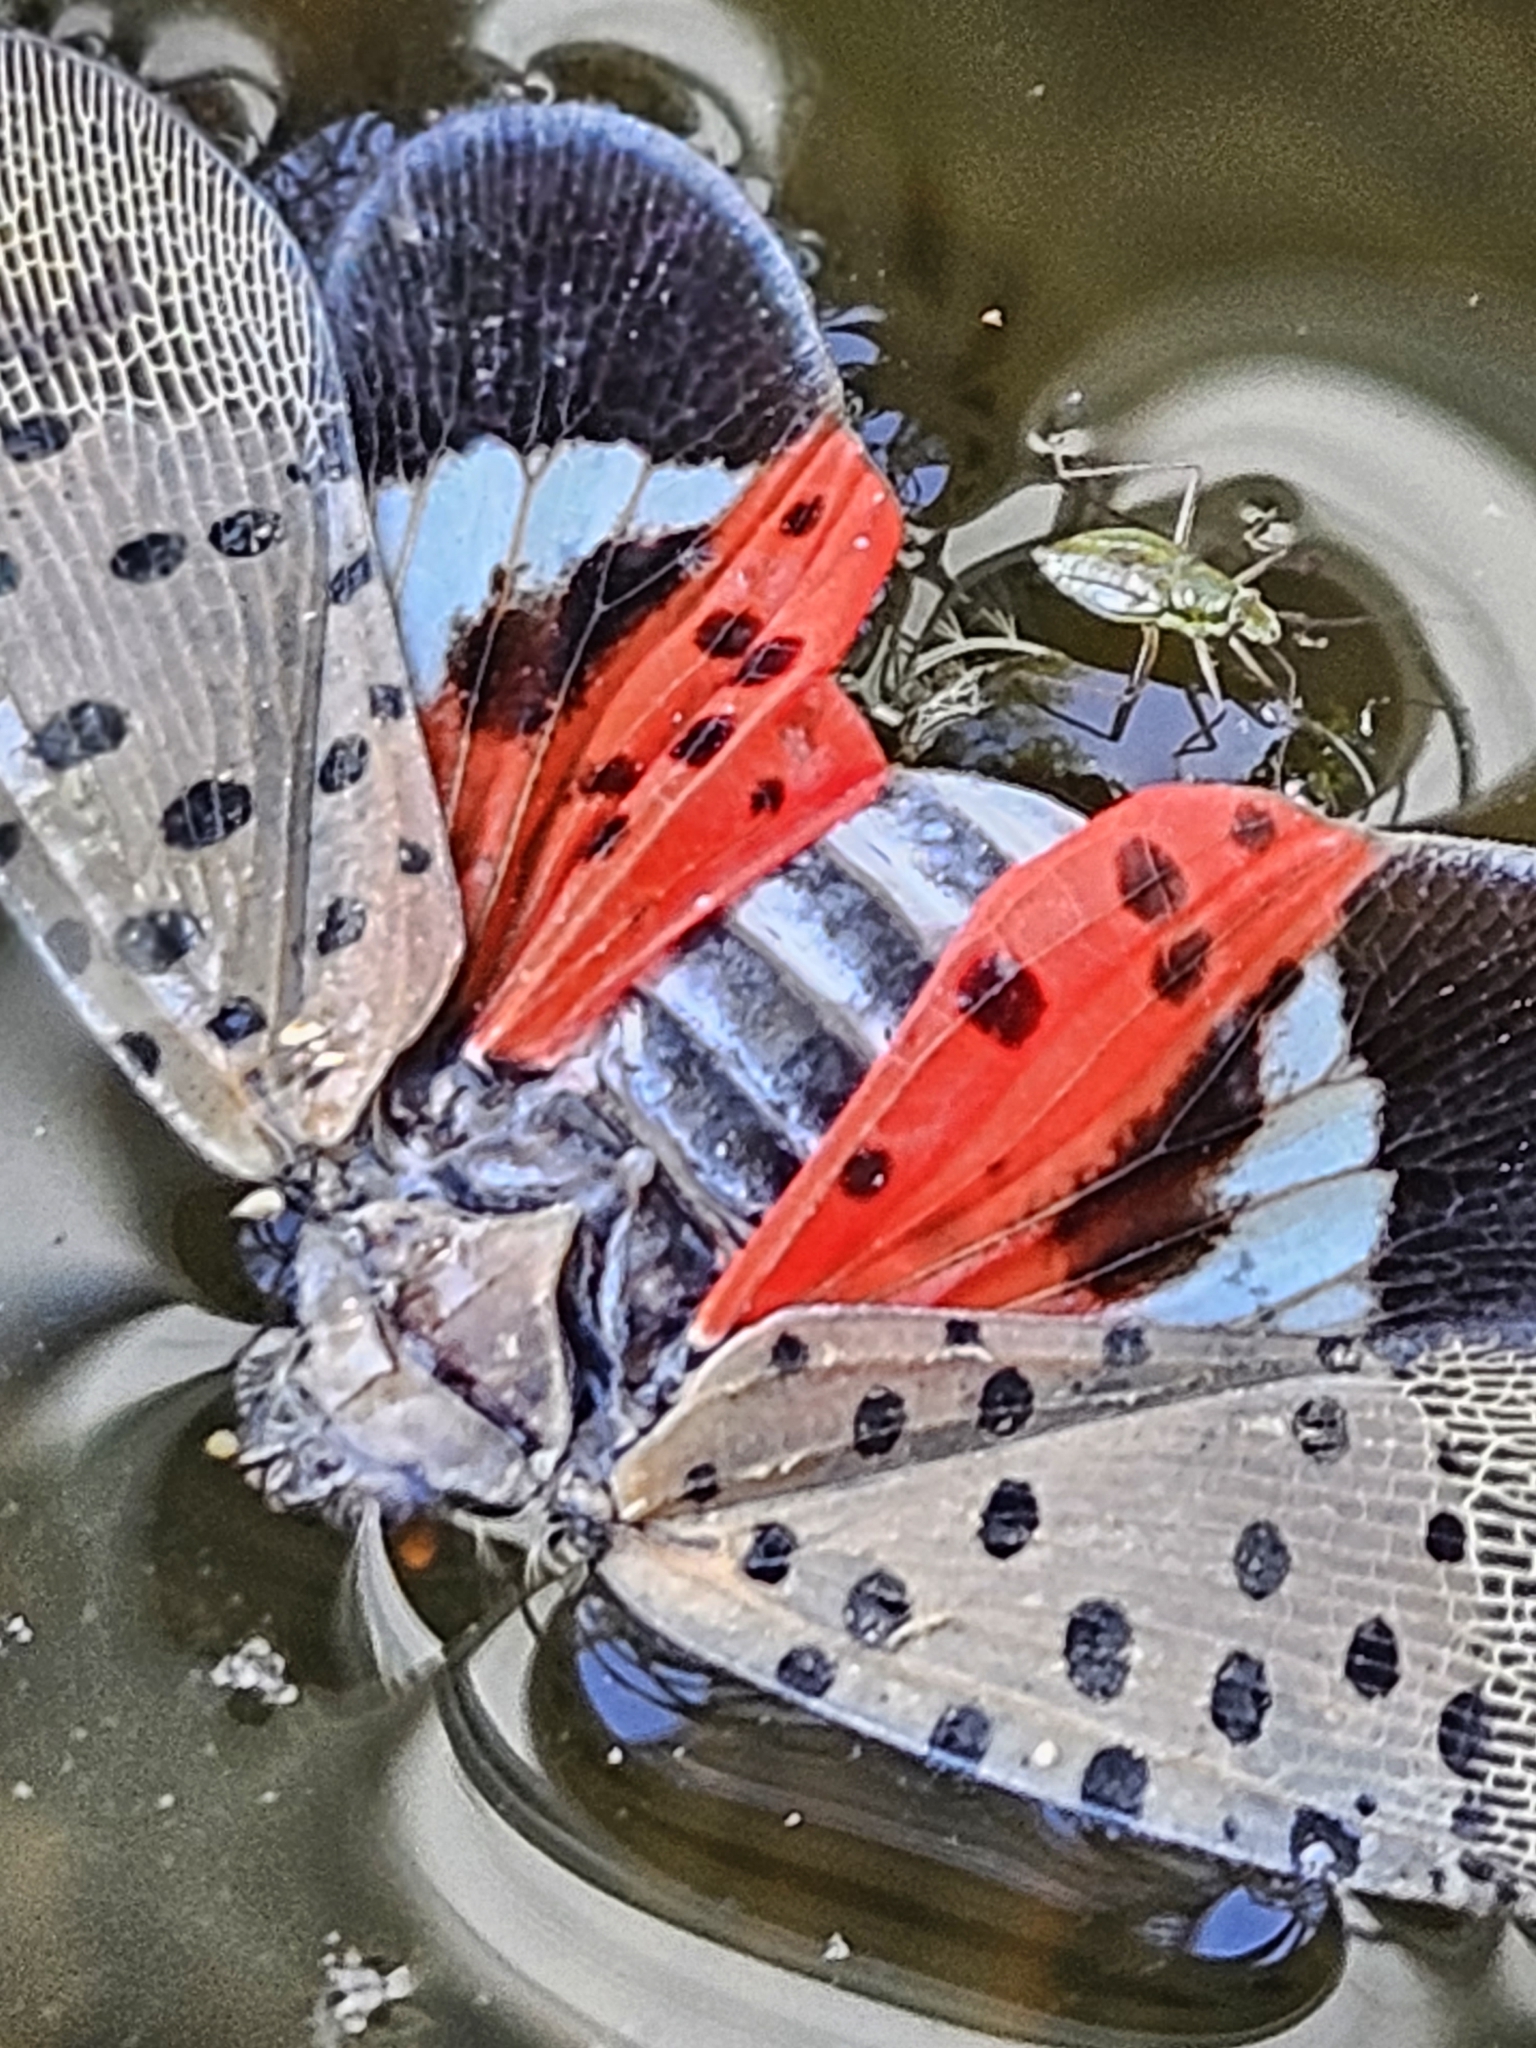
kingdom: Animalia
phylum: Arthropoda
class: Insecta
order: Hemiptera
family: Fulgoridae
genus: Lycorma
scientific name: Lycorma delicatula
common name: Spotted lanternfly
